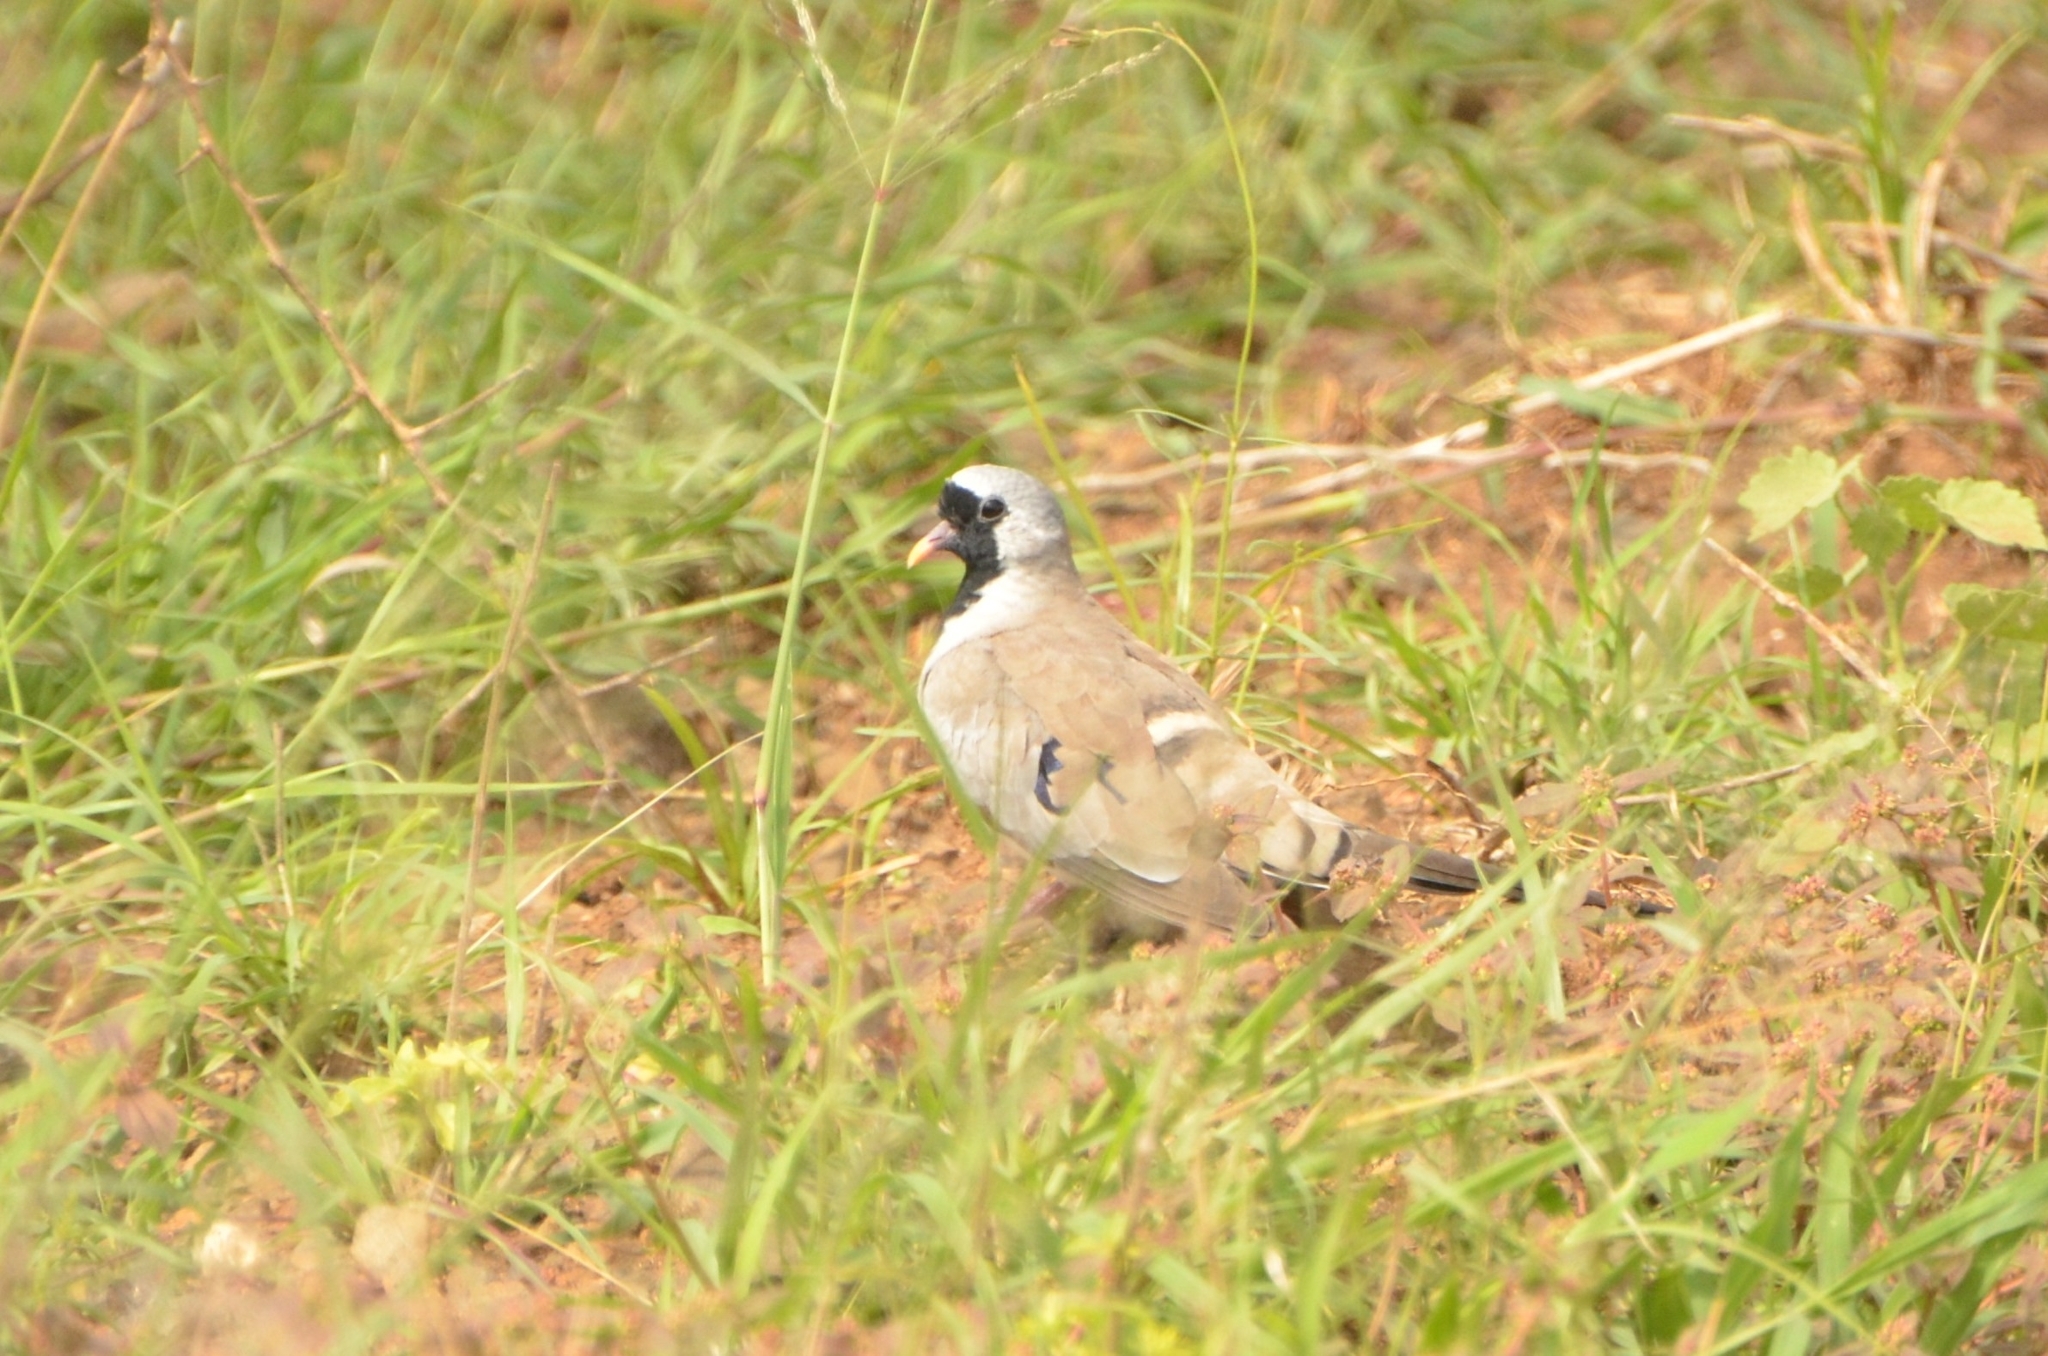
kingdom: Animalia
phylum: Chordata
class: Aves
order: Columbiformes
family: Columbidae
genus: Oena
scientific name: Oena capensis
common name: Namaqua dove
